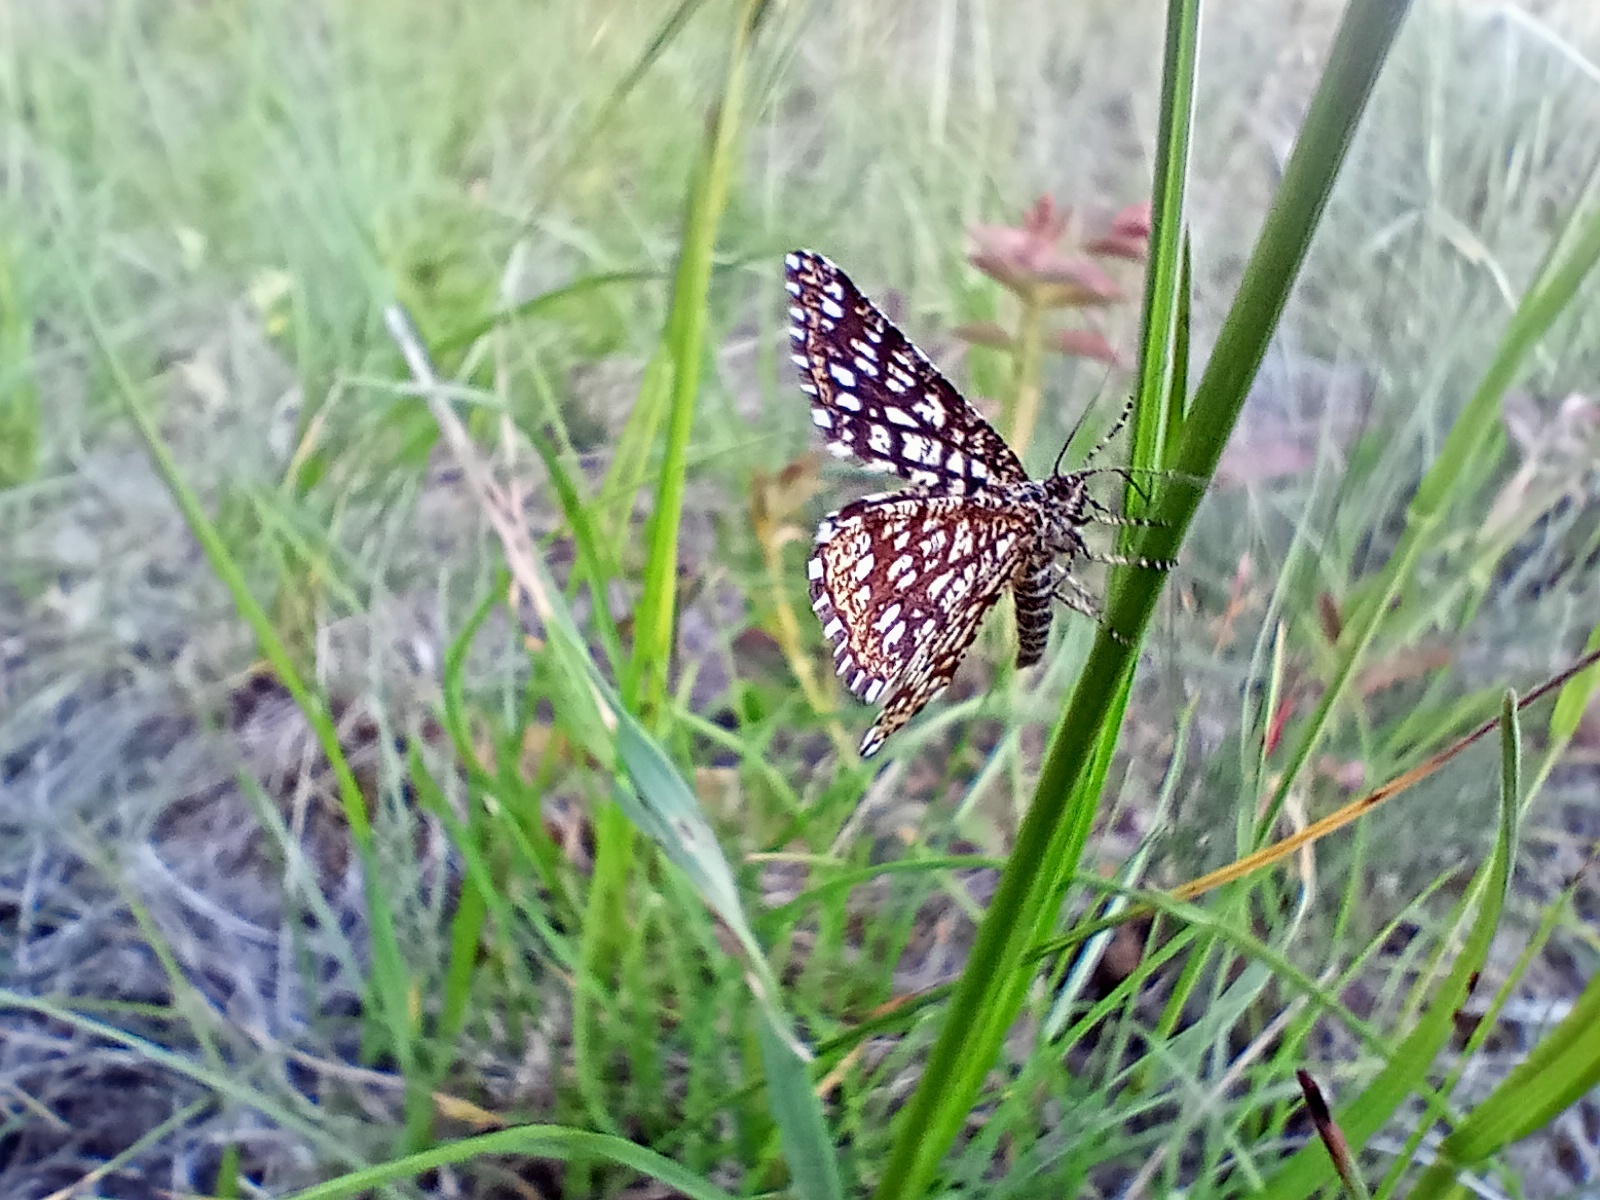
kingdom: Animalia
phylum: Arthropoda
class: Insecta
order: Lepidoptera
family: Geometridae
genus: Chiasmia
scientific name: Chiasmia clathrata
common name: Latticed heath
